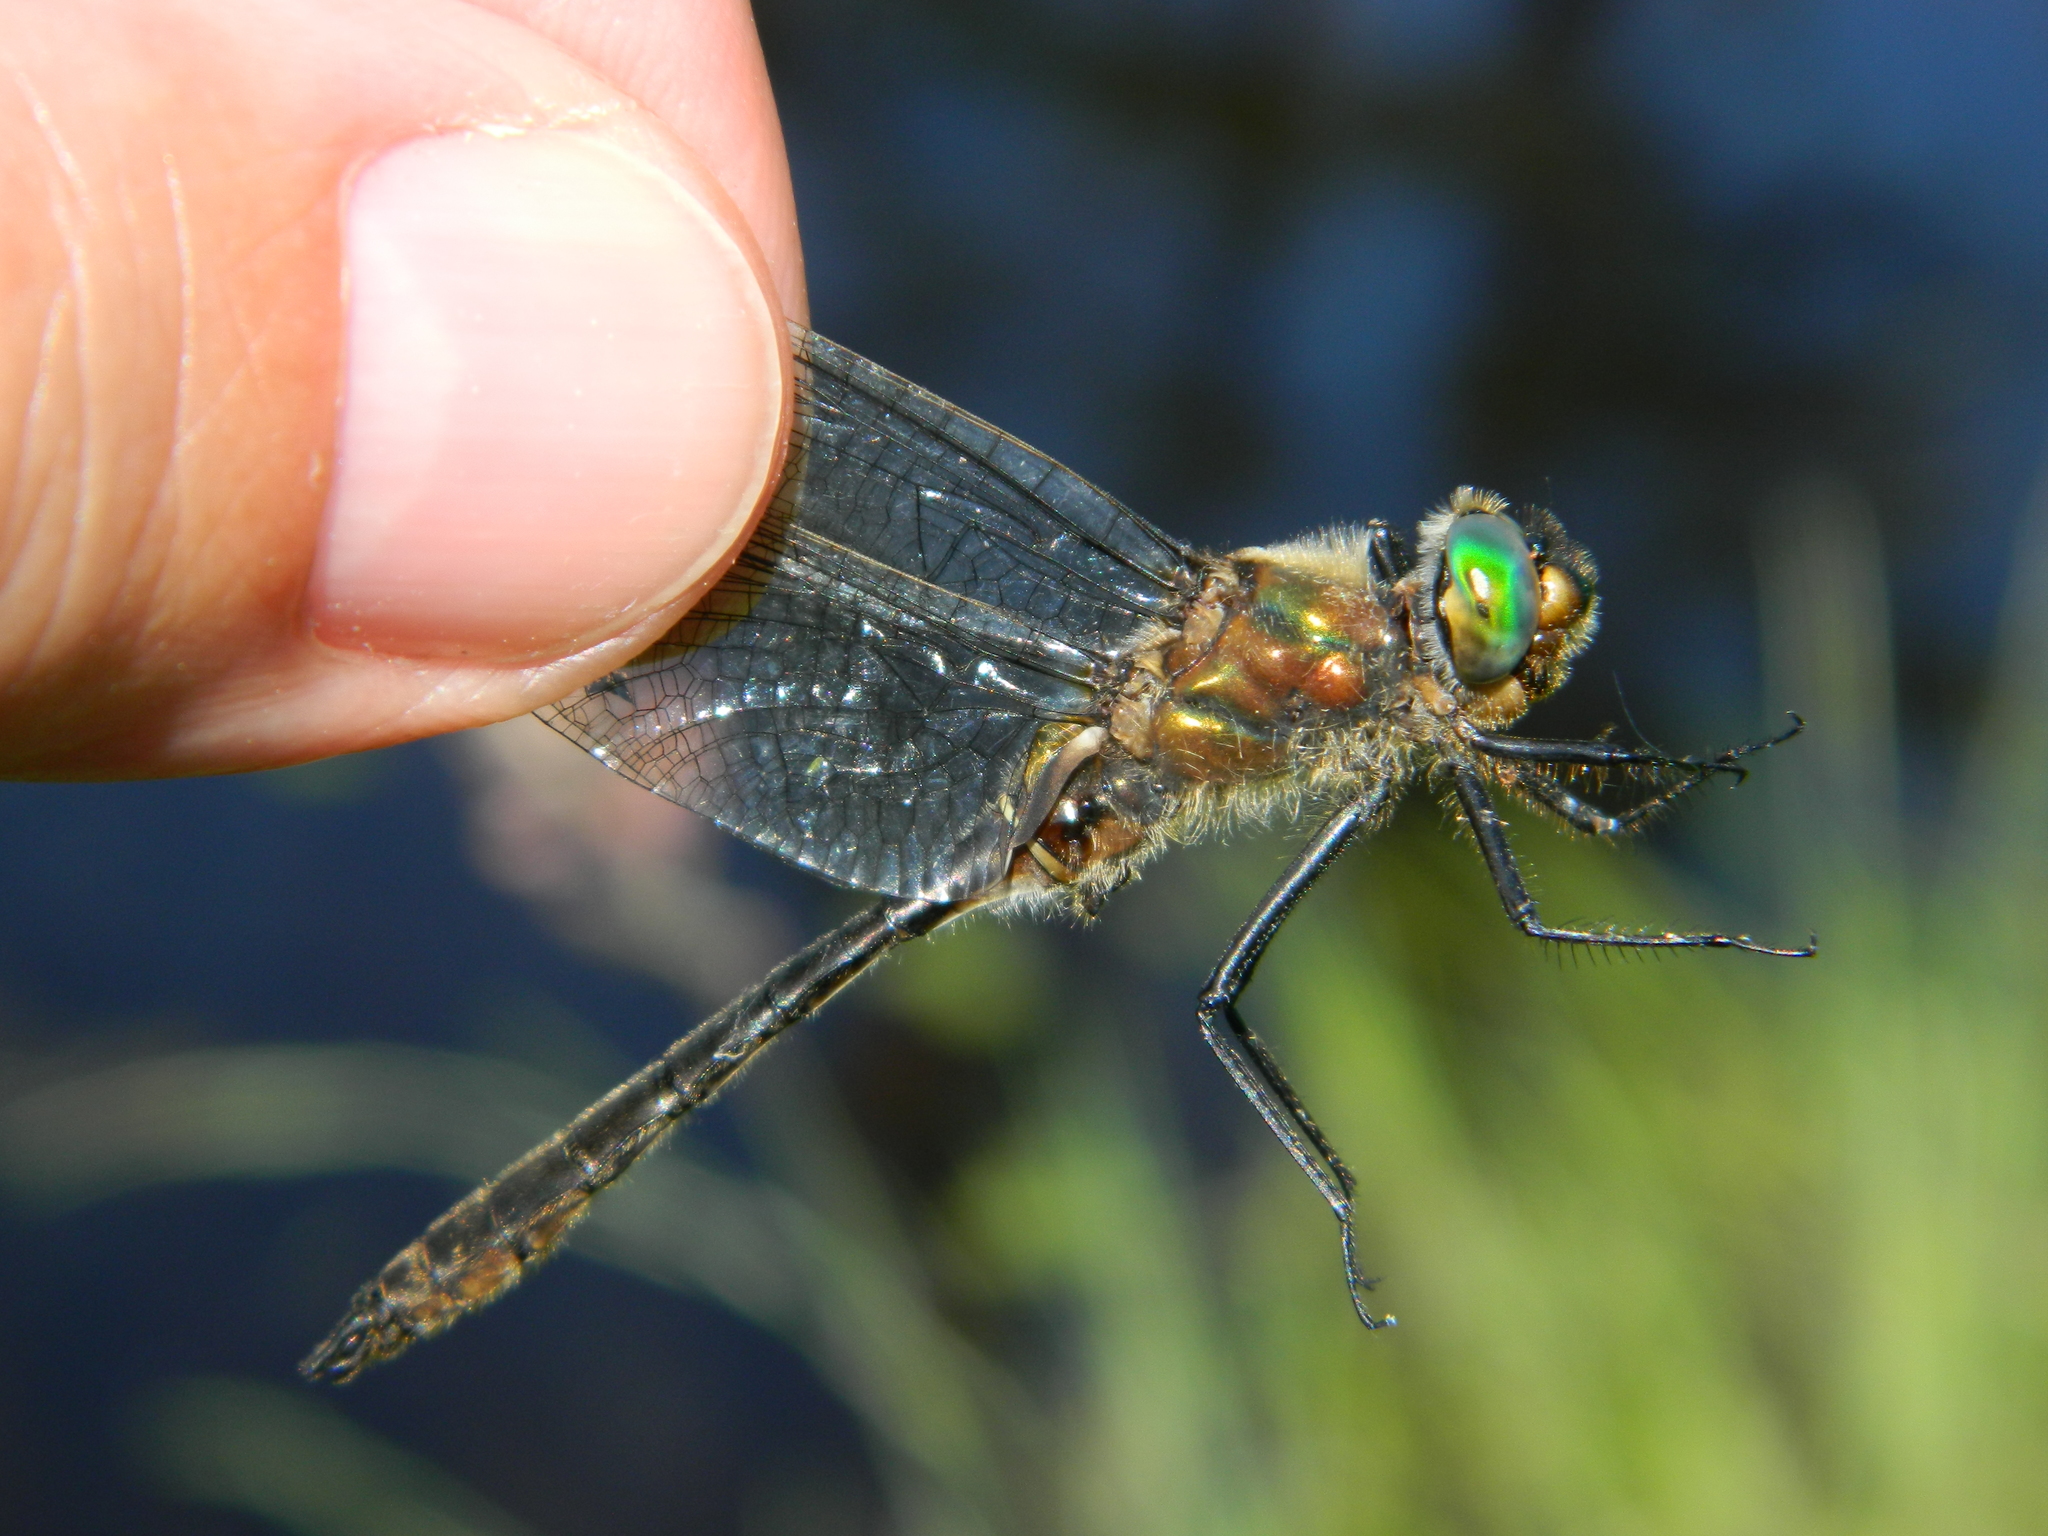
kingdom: Animalia
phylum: Arthropoda
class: Insecta
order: Odonata
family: Corduliidae
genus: Cordulia
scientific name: Cordulia shurtleffii
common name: American emerald
